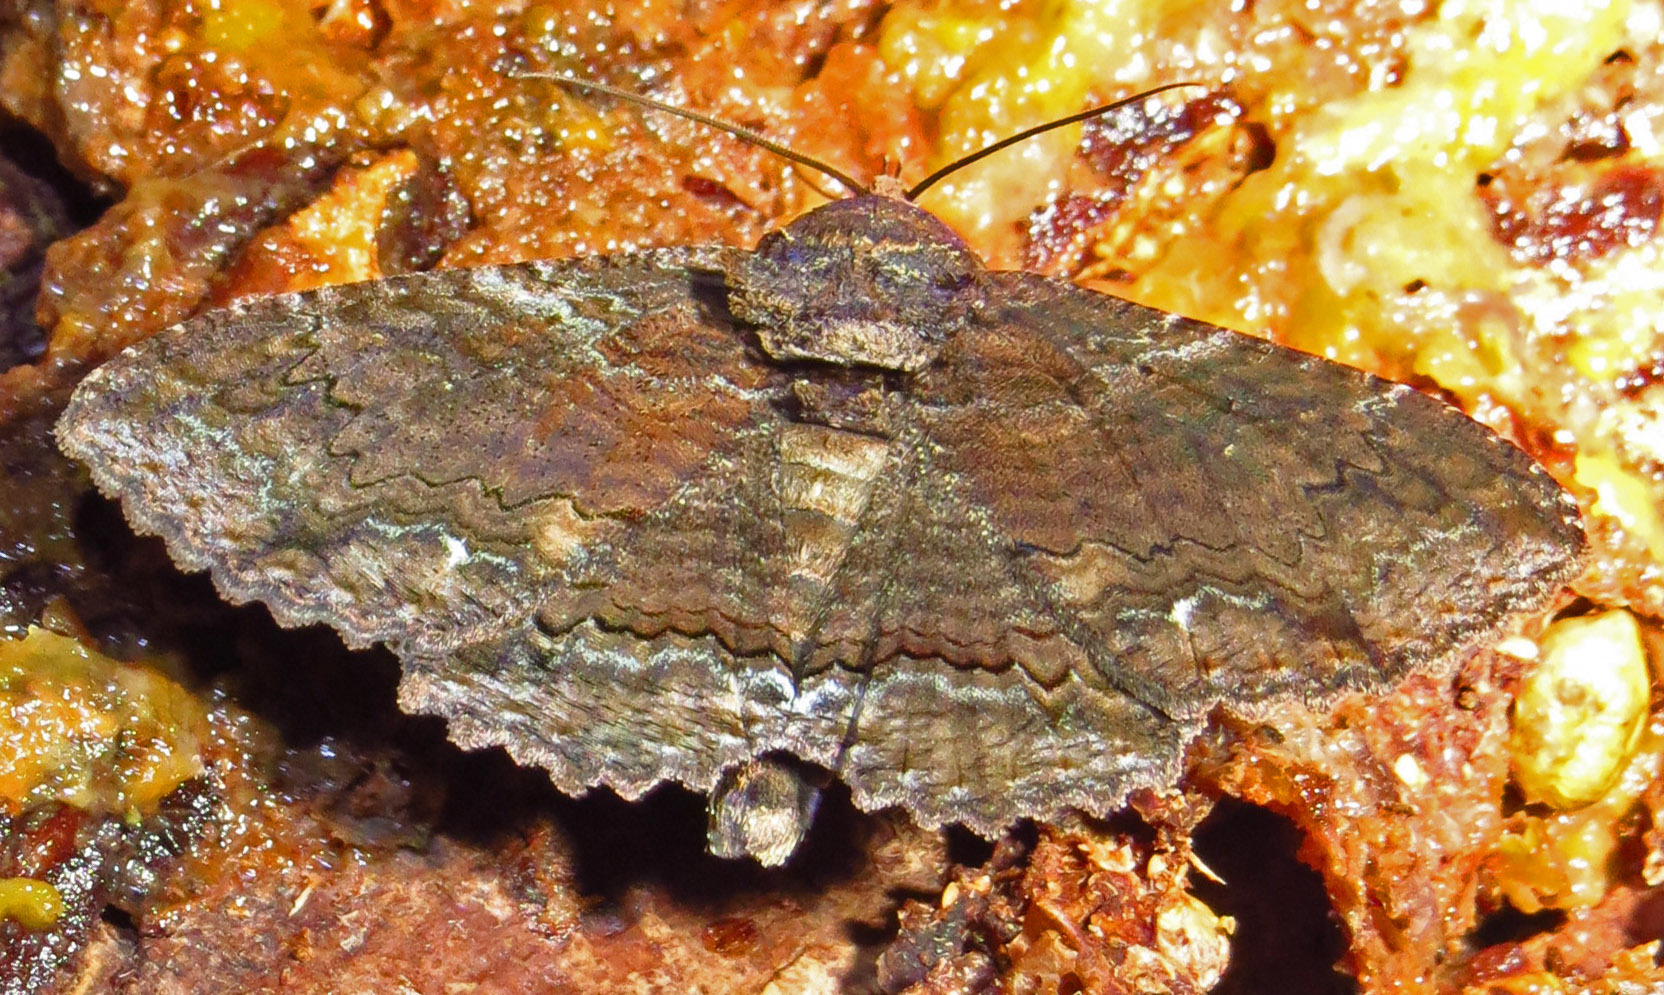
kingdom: Animalia
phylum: Arthropoda
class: Insecta
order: Lepidoptera
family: Erebidae
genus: Zale
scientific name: Zale lunata
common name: Lunate zale moth
